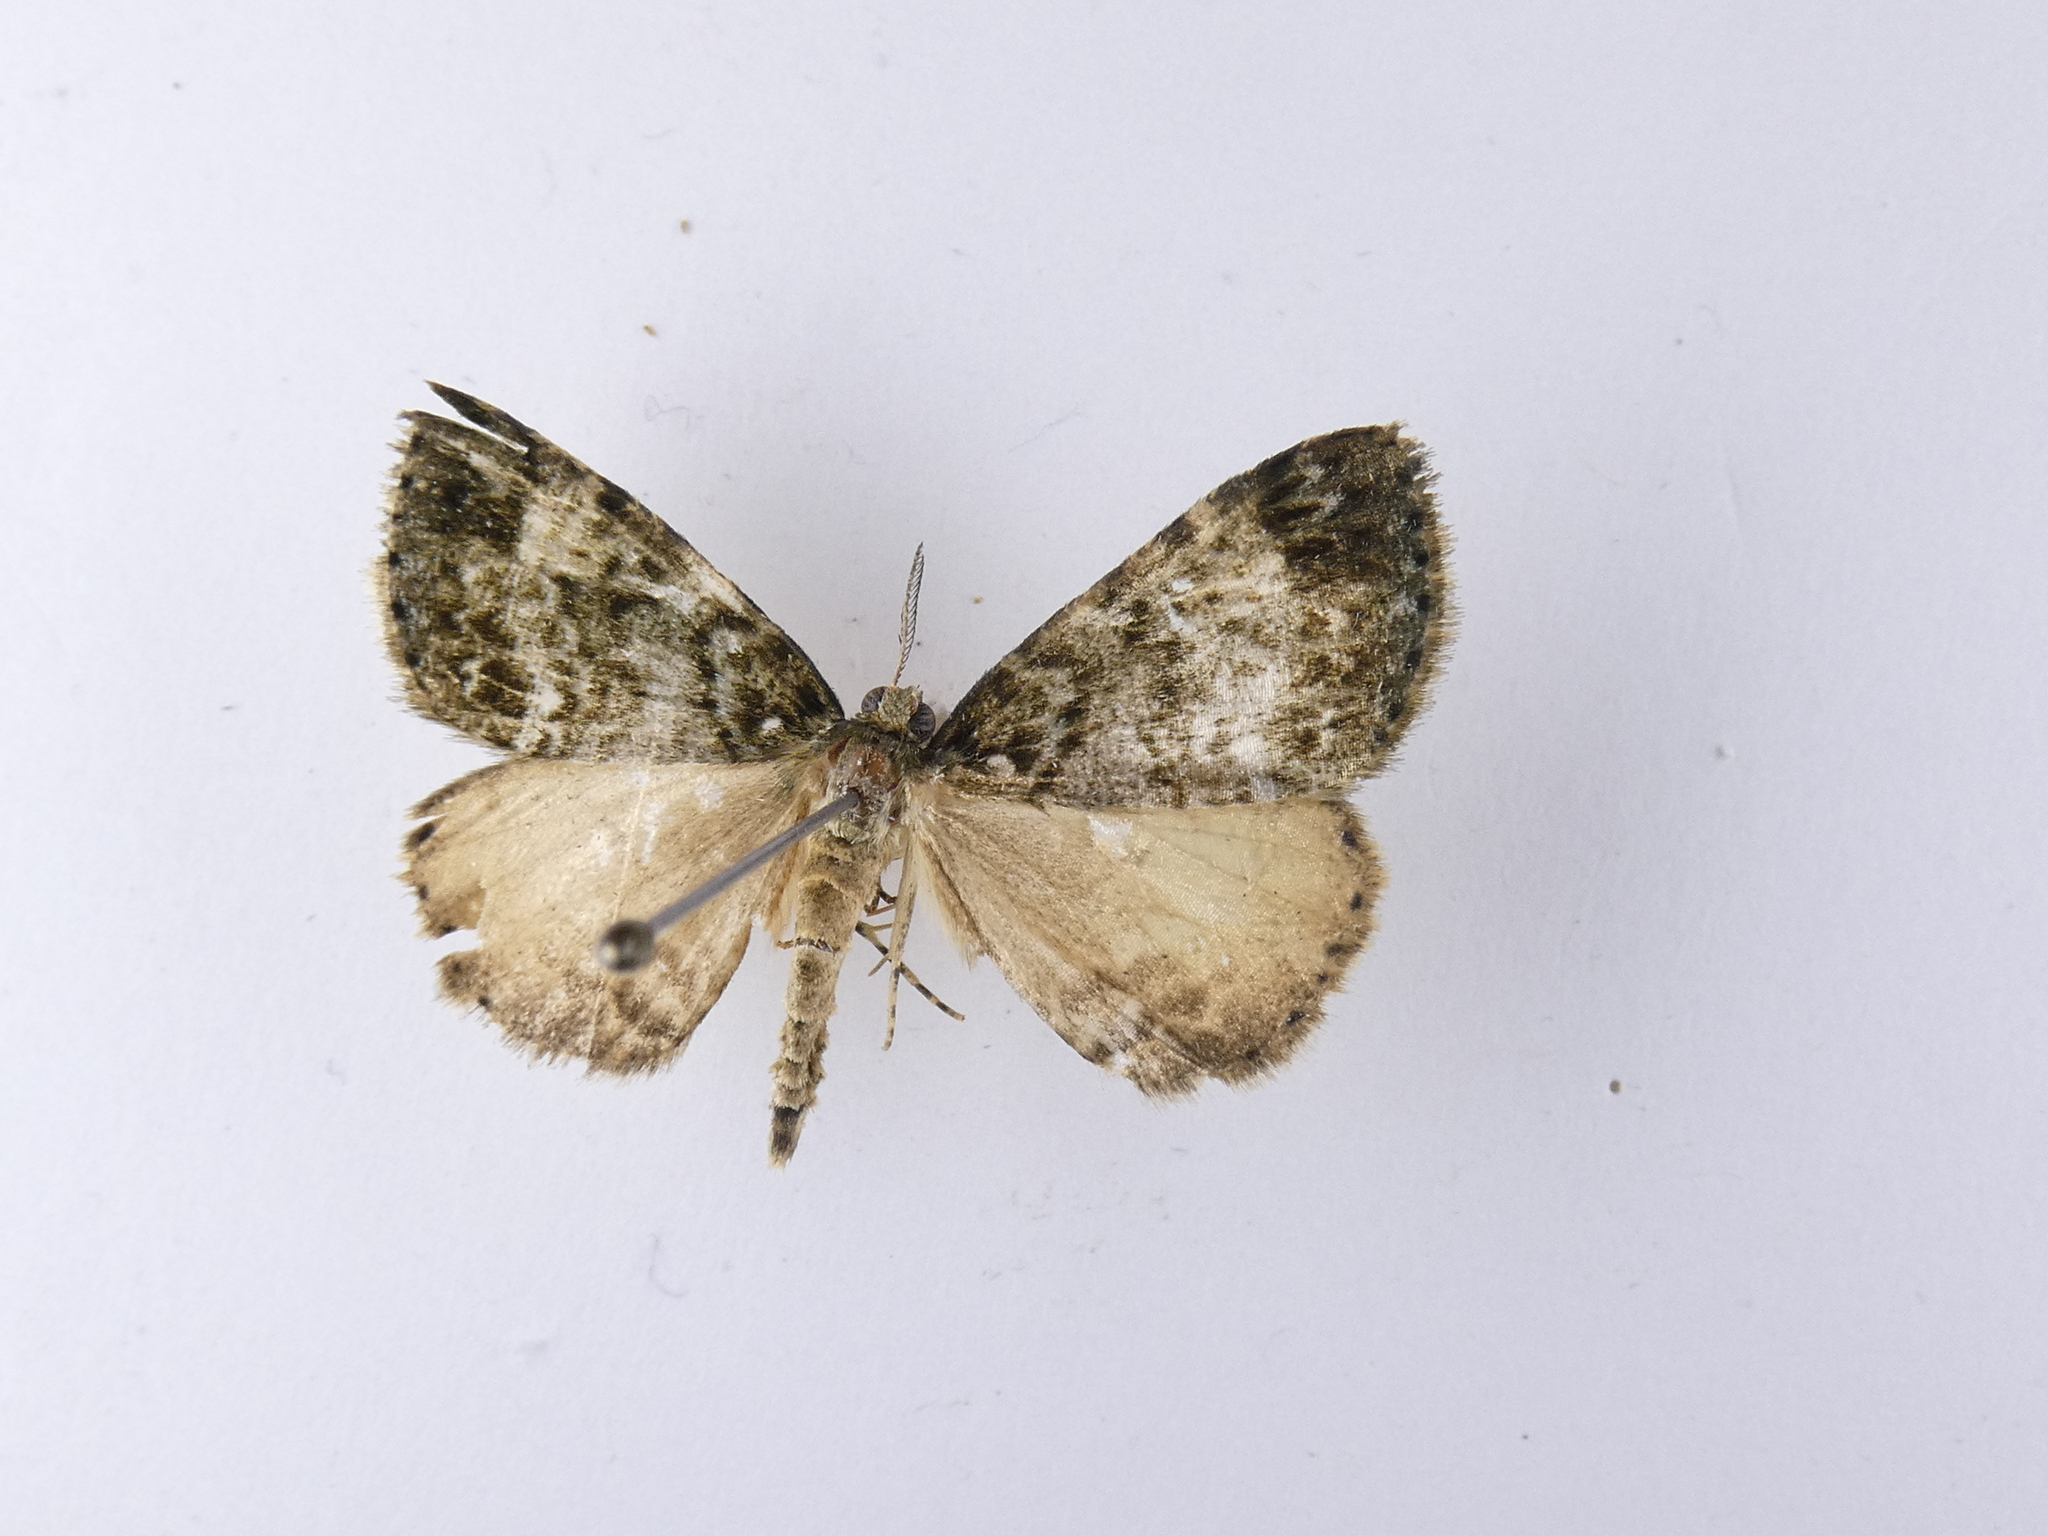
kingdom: Animalia
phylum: Arthropoda
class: Insecta
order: Lepidoptera
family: Geometridae
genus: Pseudocoremia
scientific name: Pseudocoremia indistincta
